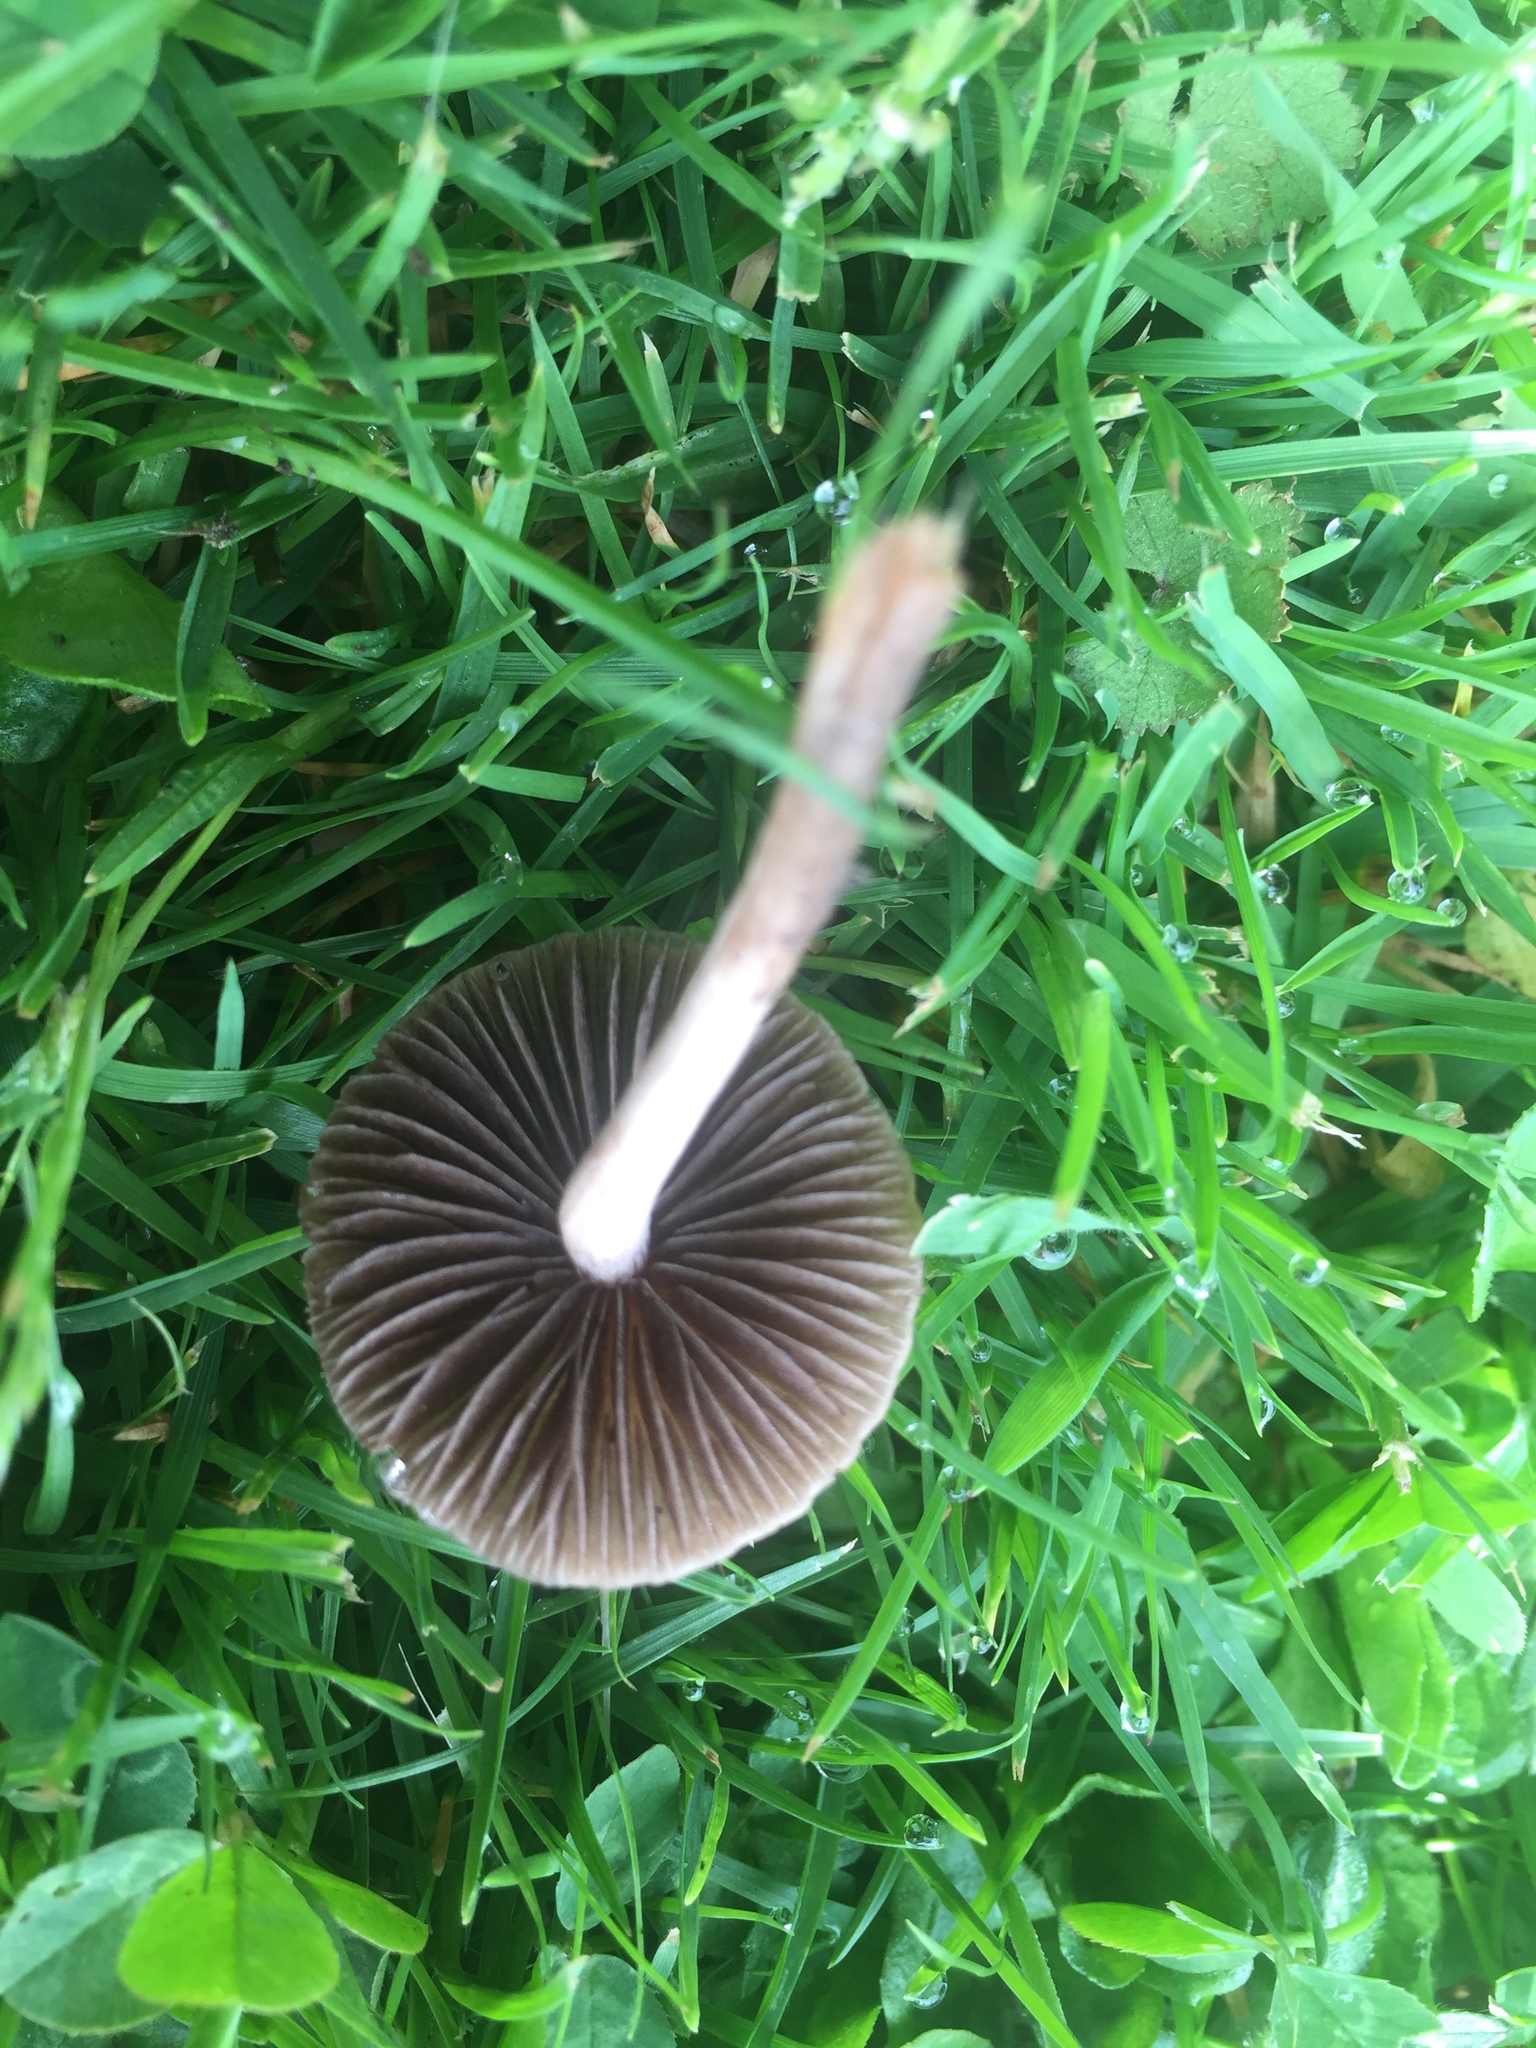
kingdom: Fungi
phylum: Basidiomycota
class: Agaricomycetes
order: Agaricales
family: Bolbitiaceae
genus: Panaeolina
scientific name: Panaeolina foenisecii
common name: Brown hay cap
